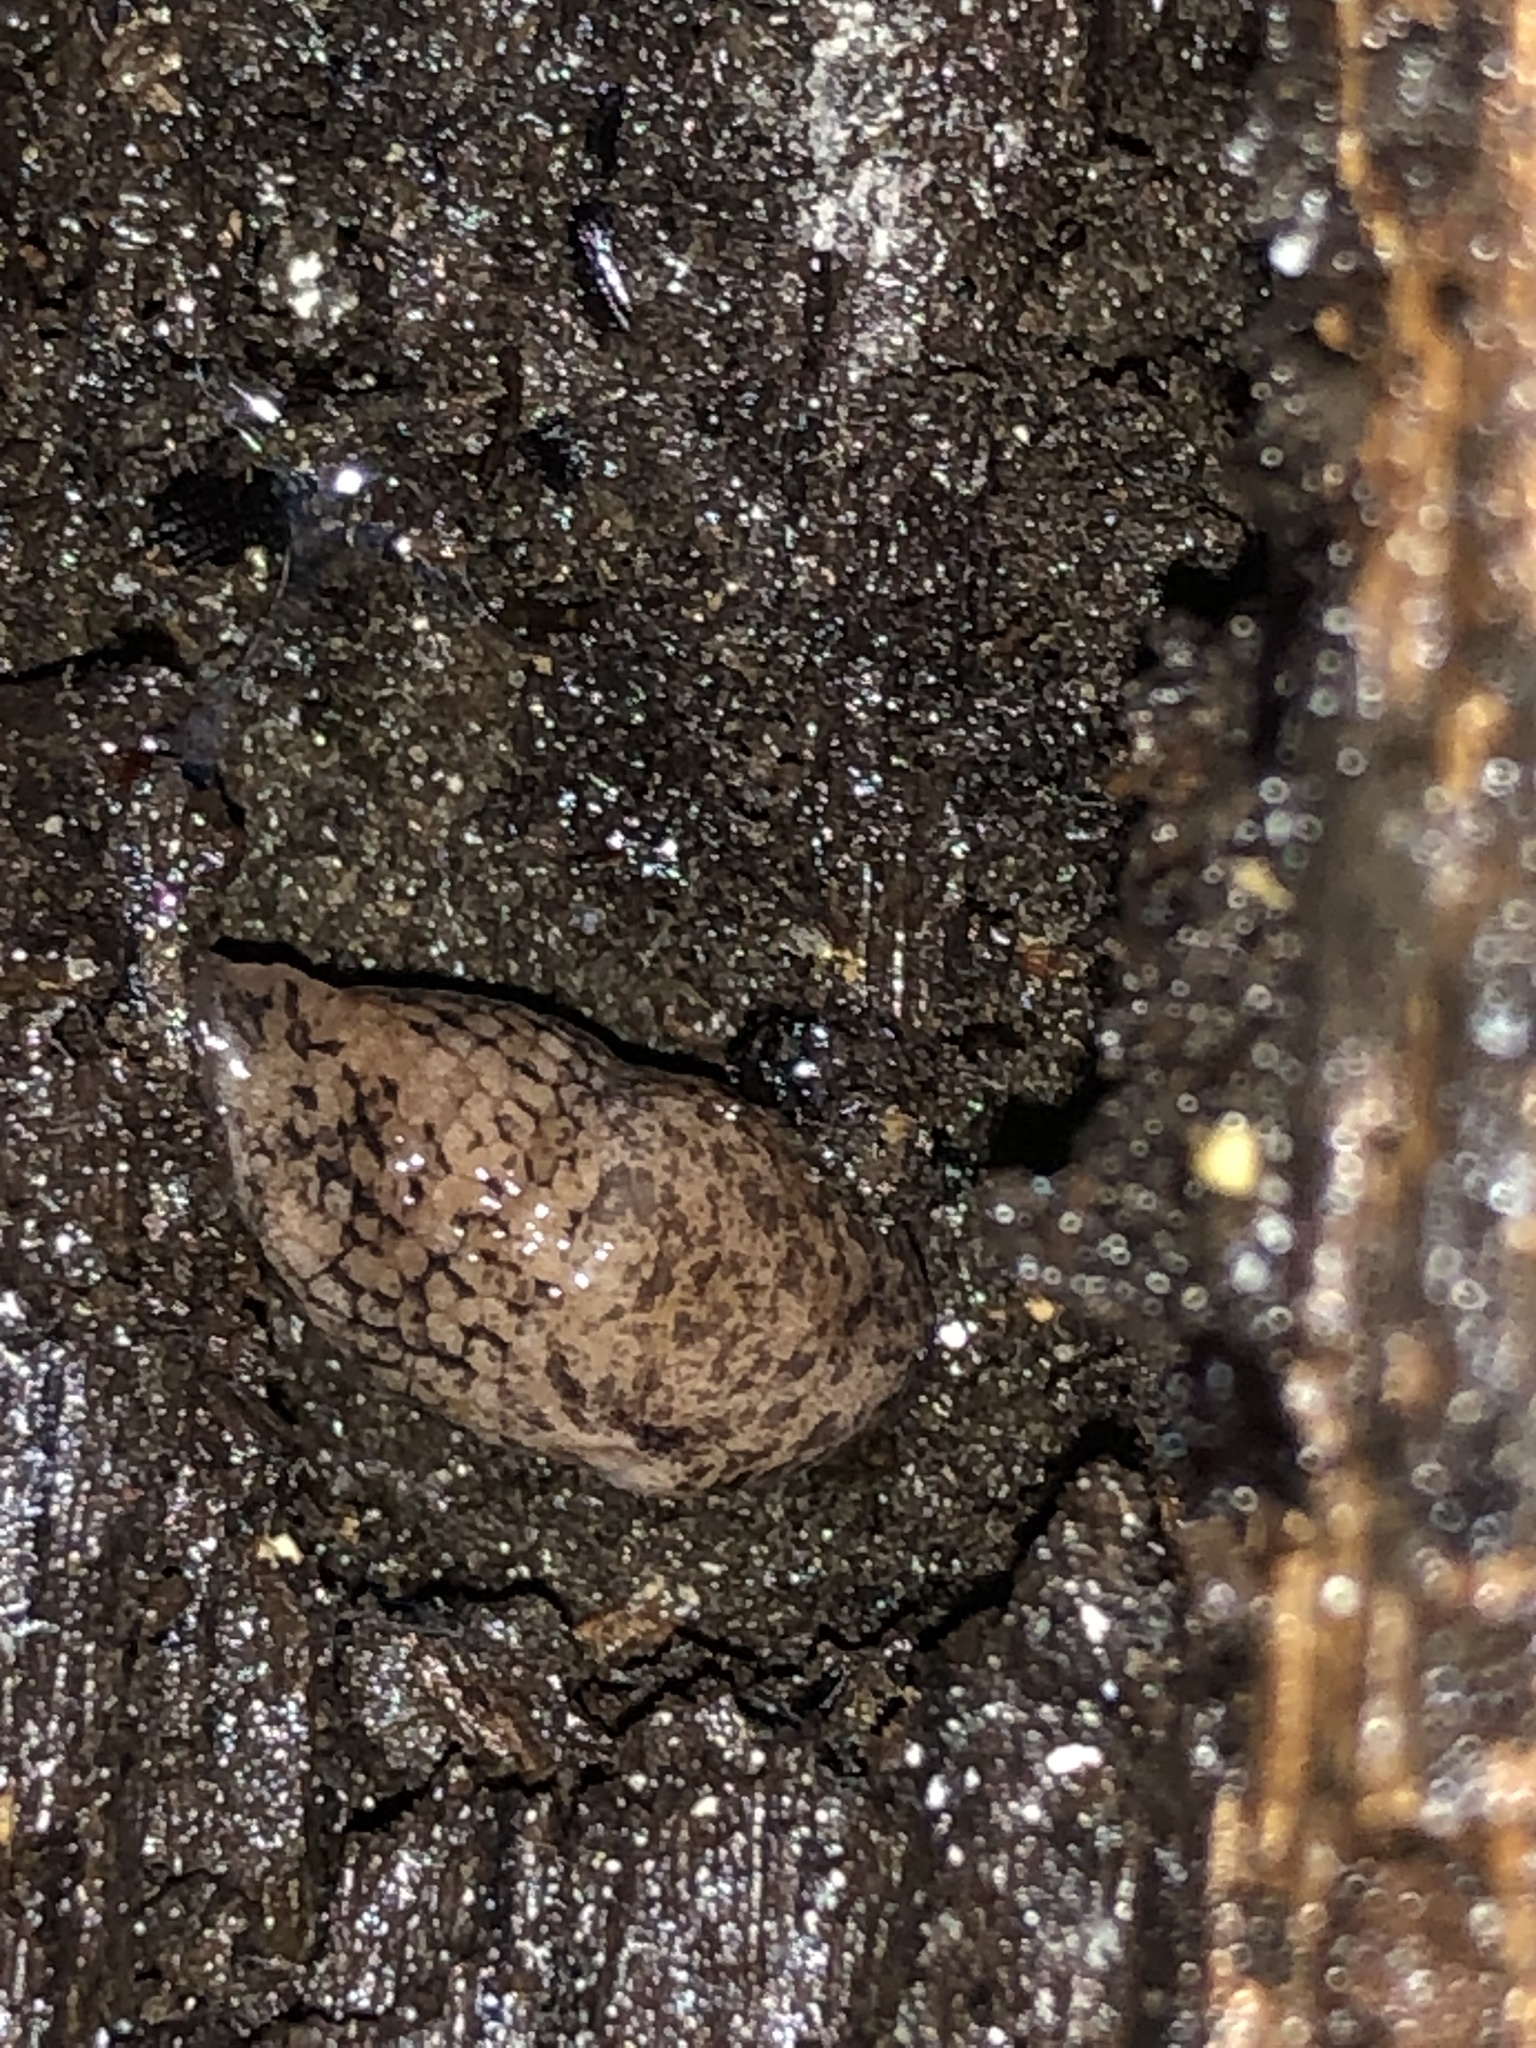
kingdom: Animalia
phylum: Mollusca
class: Gastropoda
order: Stylommatophora
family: Agriolimacidae
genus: Deroceras
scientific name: Deroceras reticulatum
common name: Gray field slug
